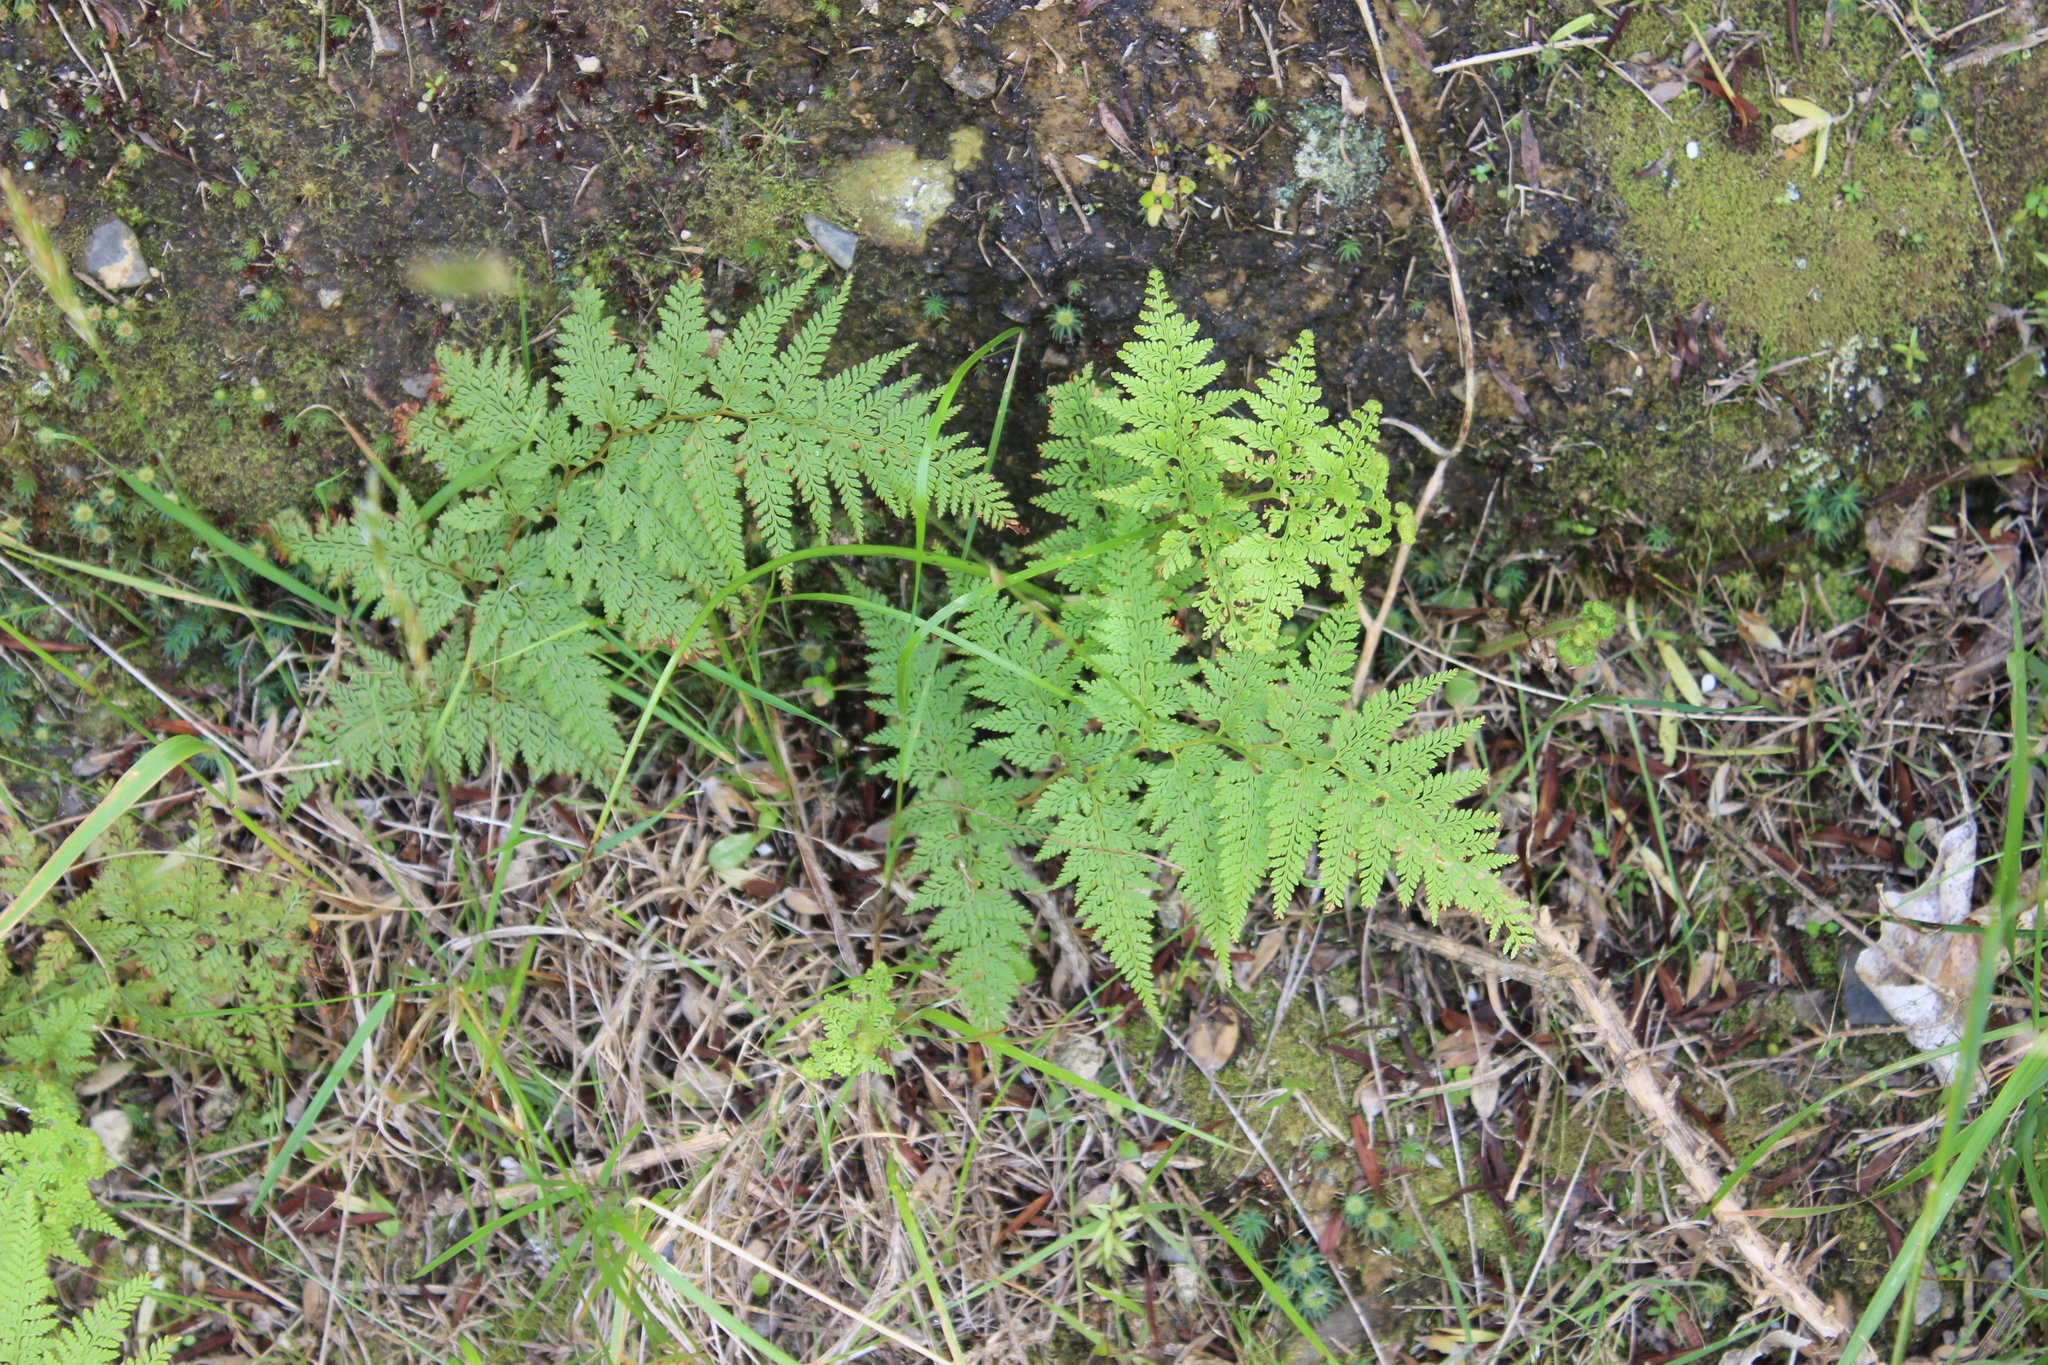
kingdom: Plantae
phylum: Tracheophyta
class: Polypodiopsida
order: Polypodiales
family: Dennstaedtiaceae
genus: Paesia
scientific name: Paesia scaberula
